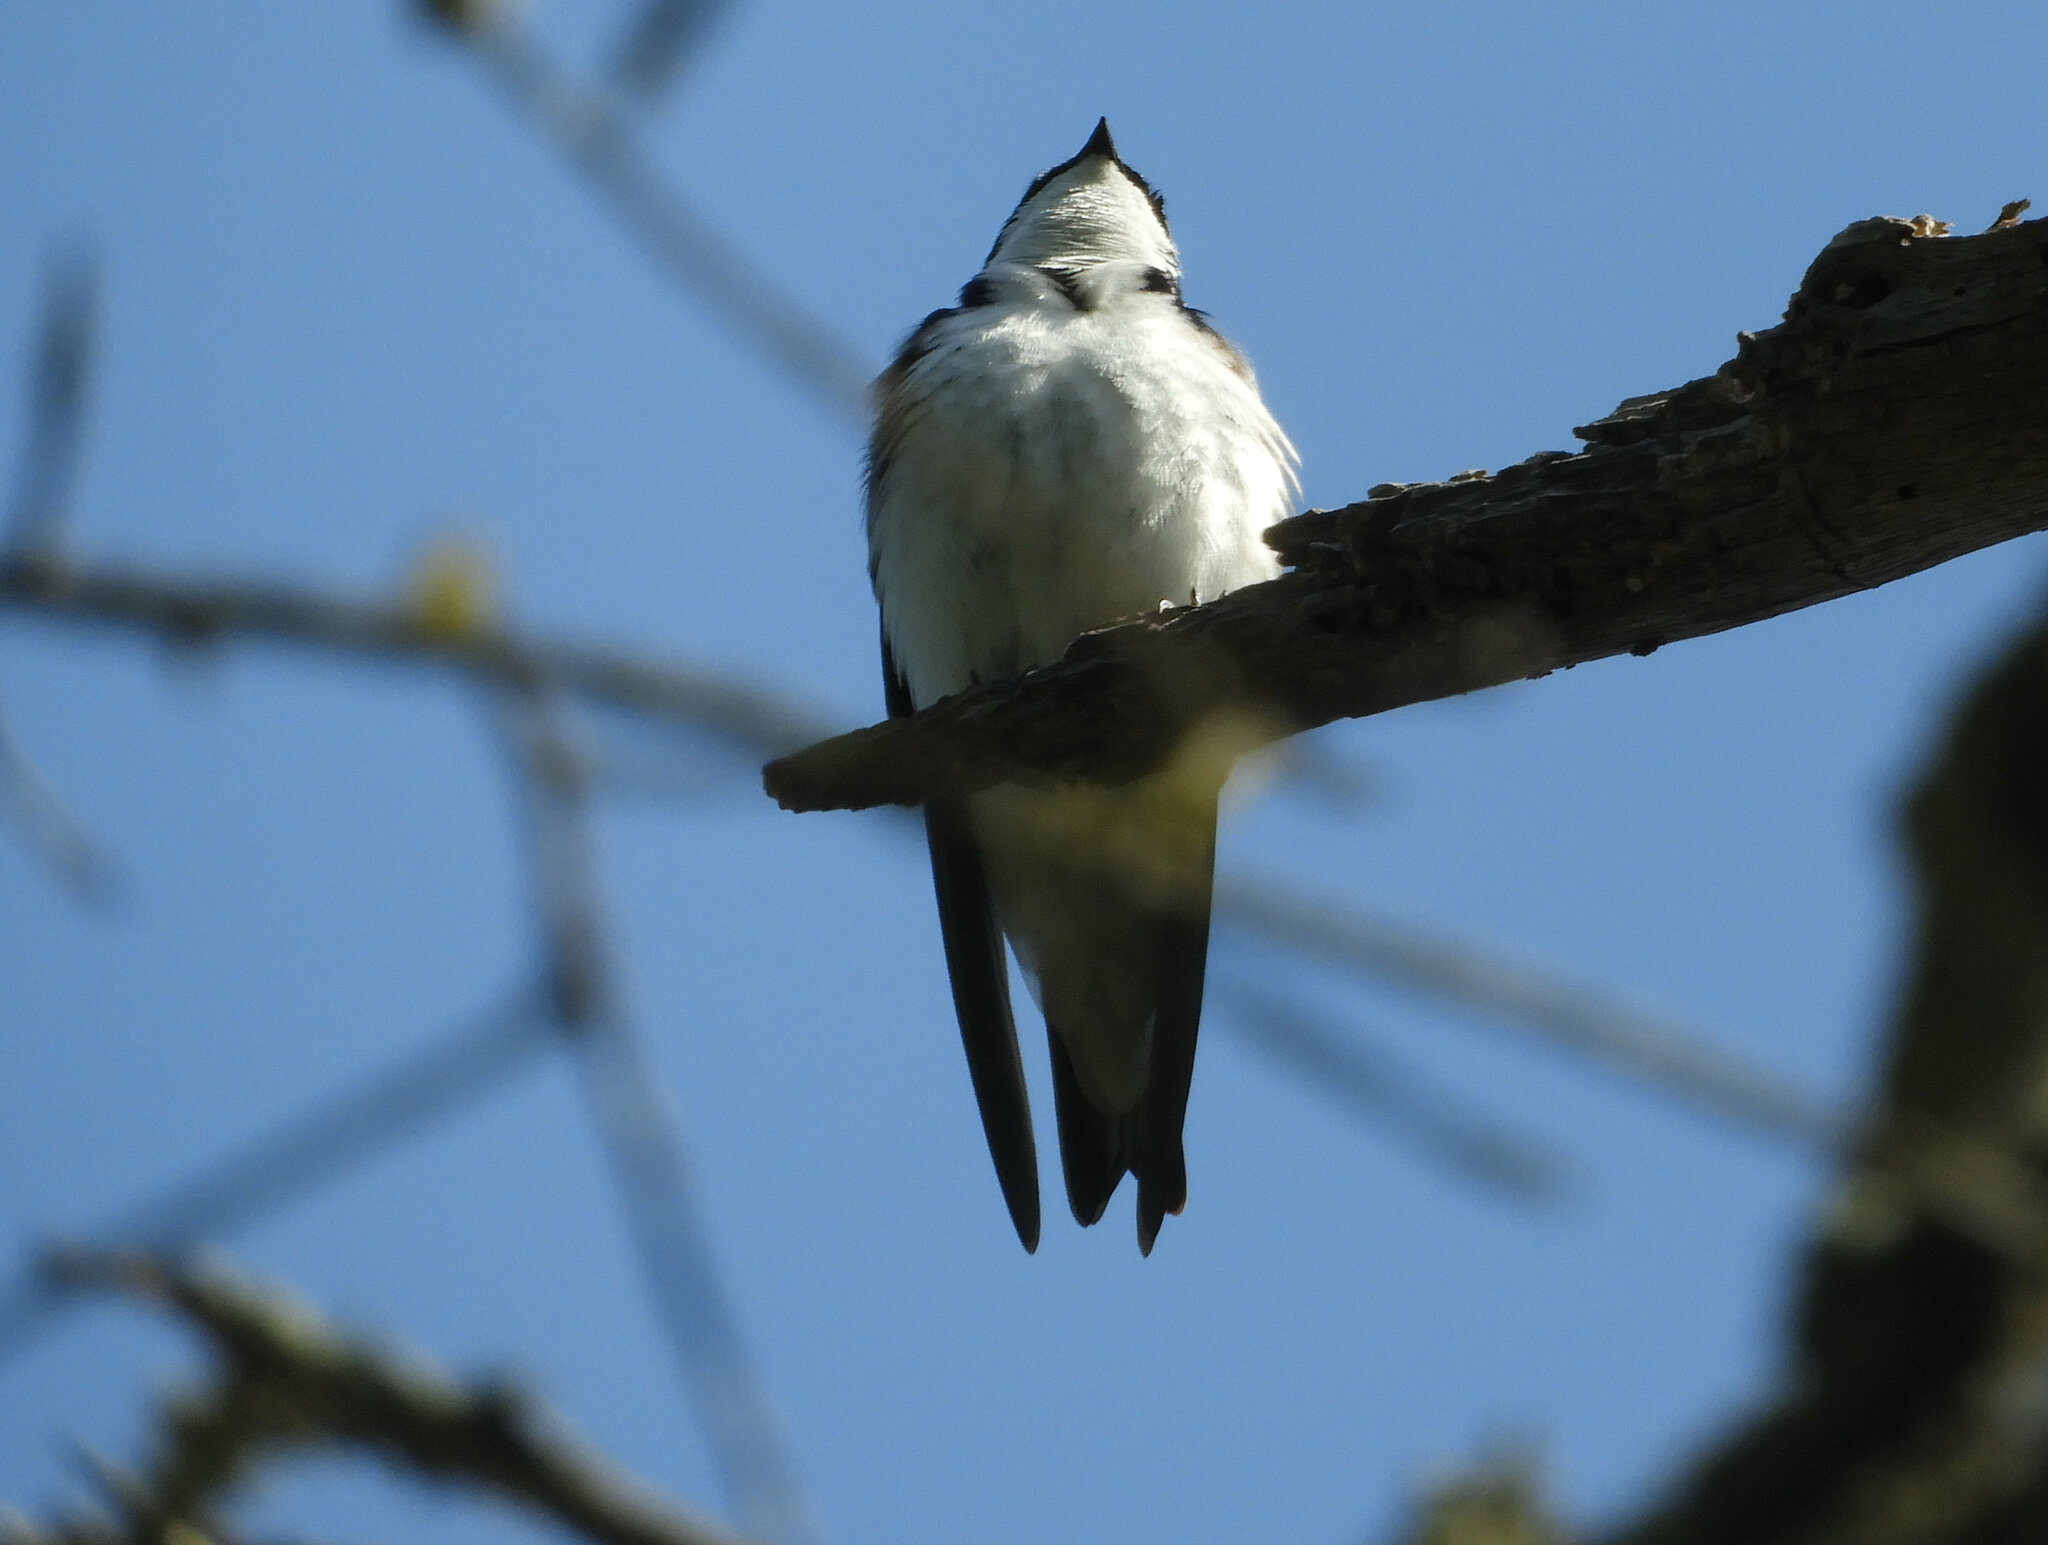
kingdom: Animalia
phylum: Chordata
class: Aves
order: Passeriformes
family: Hirundinidae
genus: Tachycineta
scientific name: Tachycineta bicolor
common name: Tree swallow
